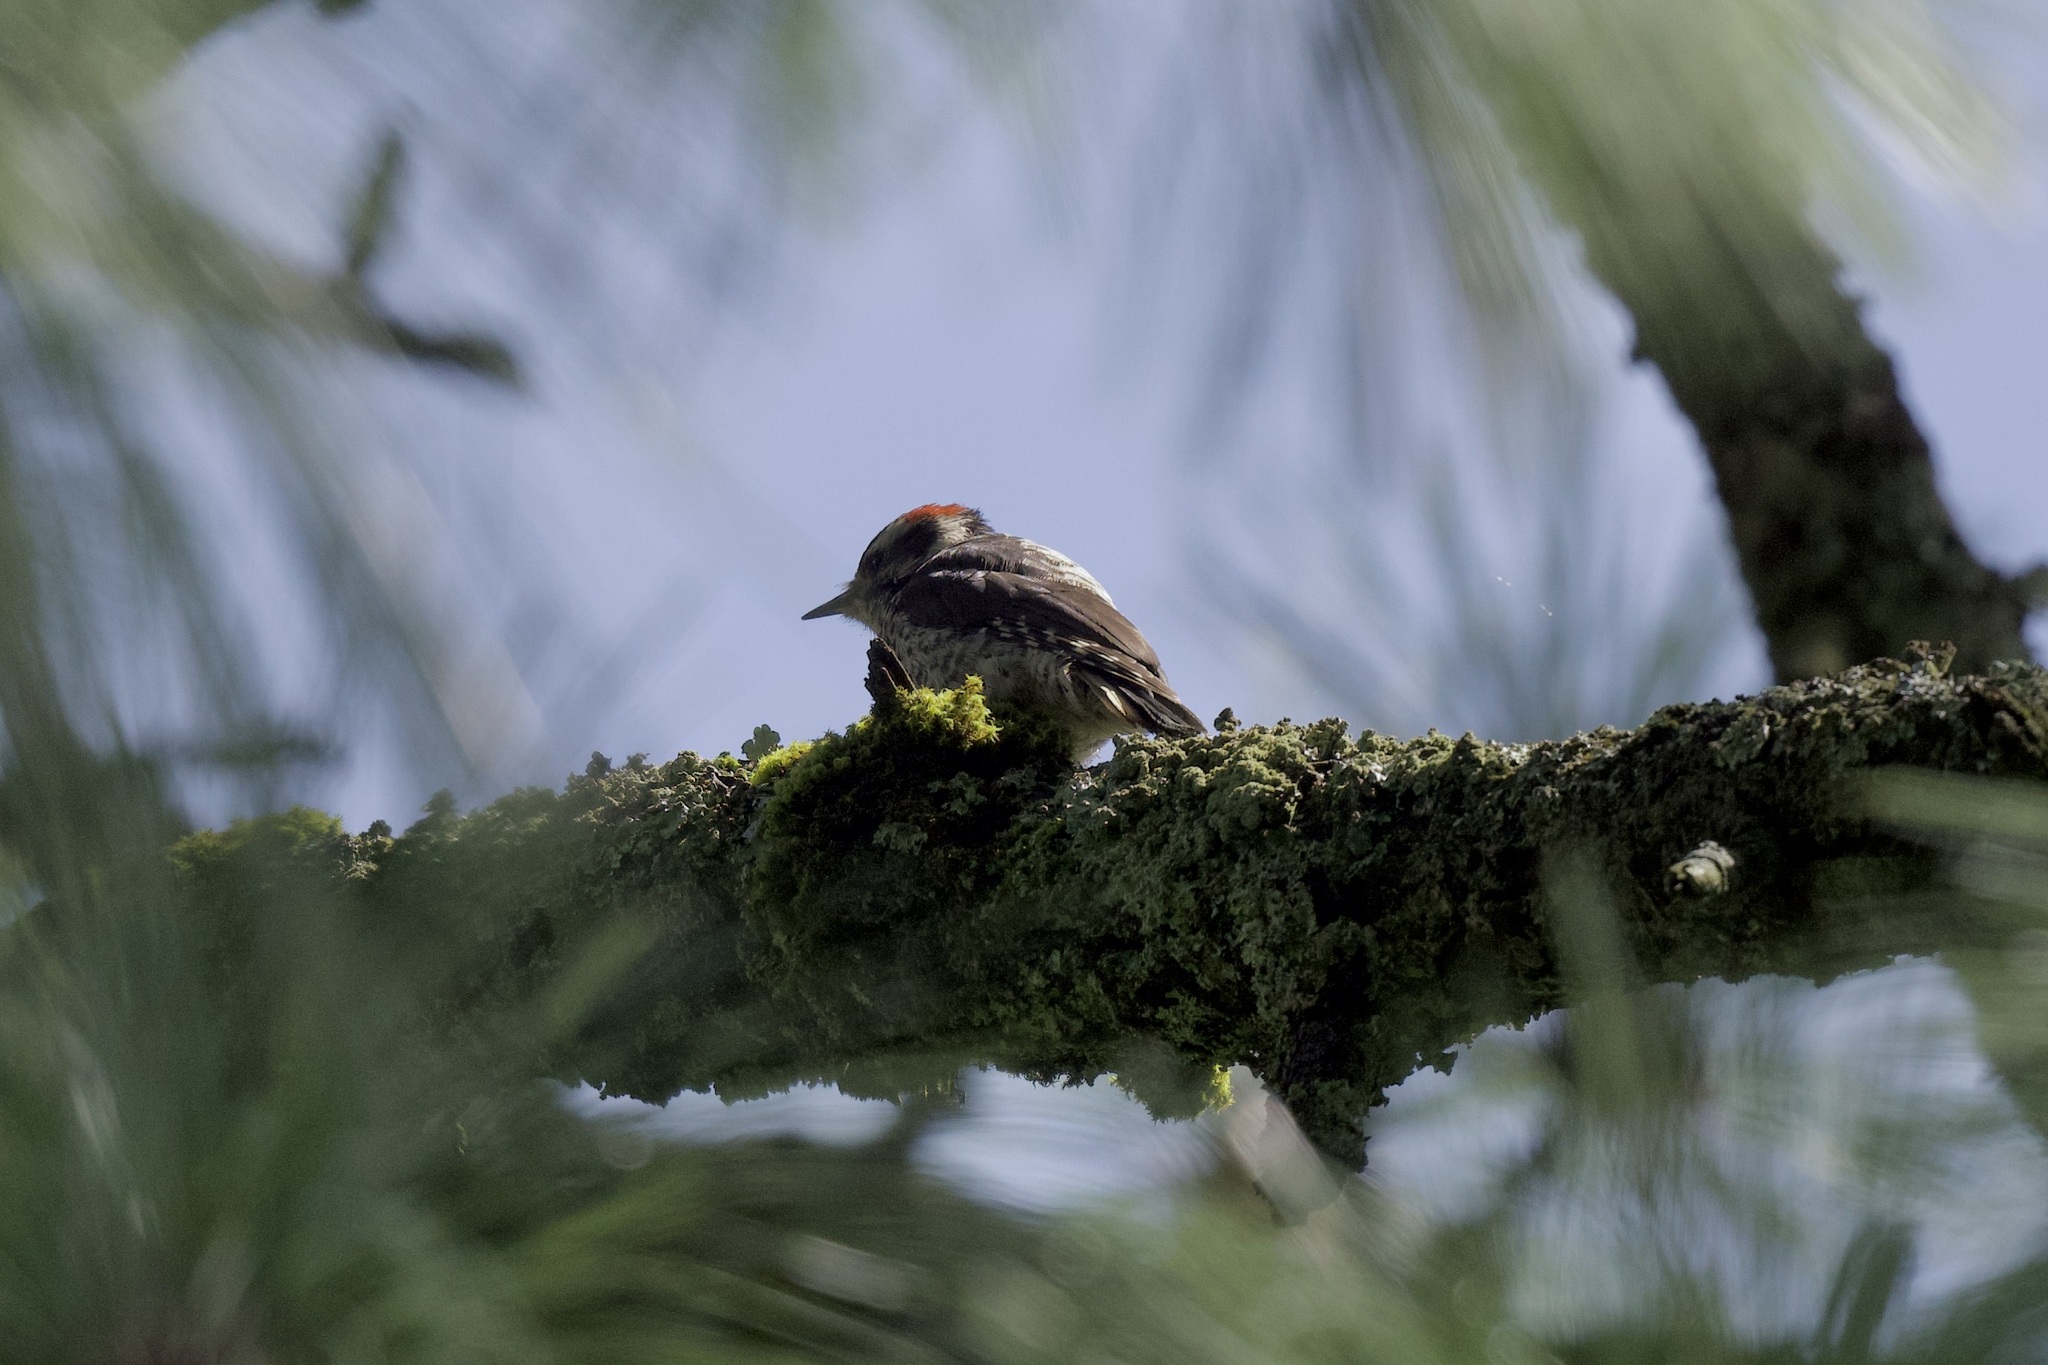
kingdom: Animalia
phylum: Chordata
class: Aves
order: Piciformes
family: Picidae
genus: Leuconotopicus
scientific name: Leuconotopicus stricklandi
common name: Strickland's woodpecker
